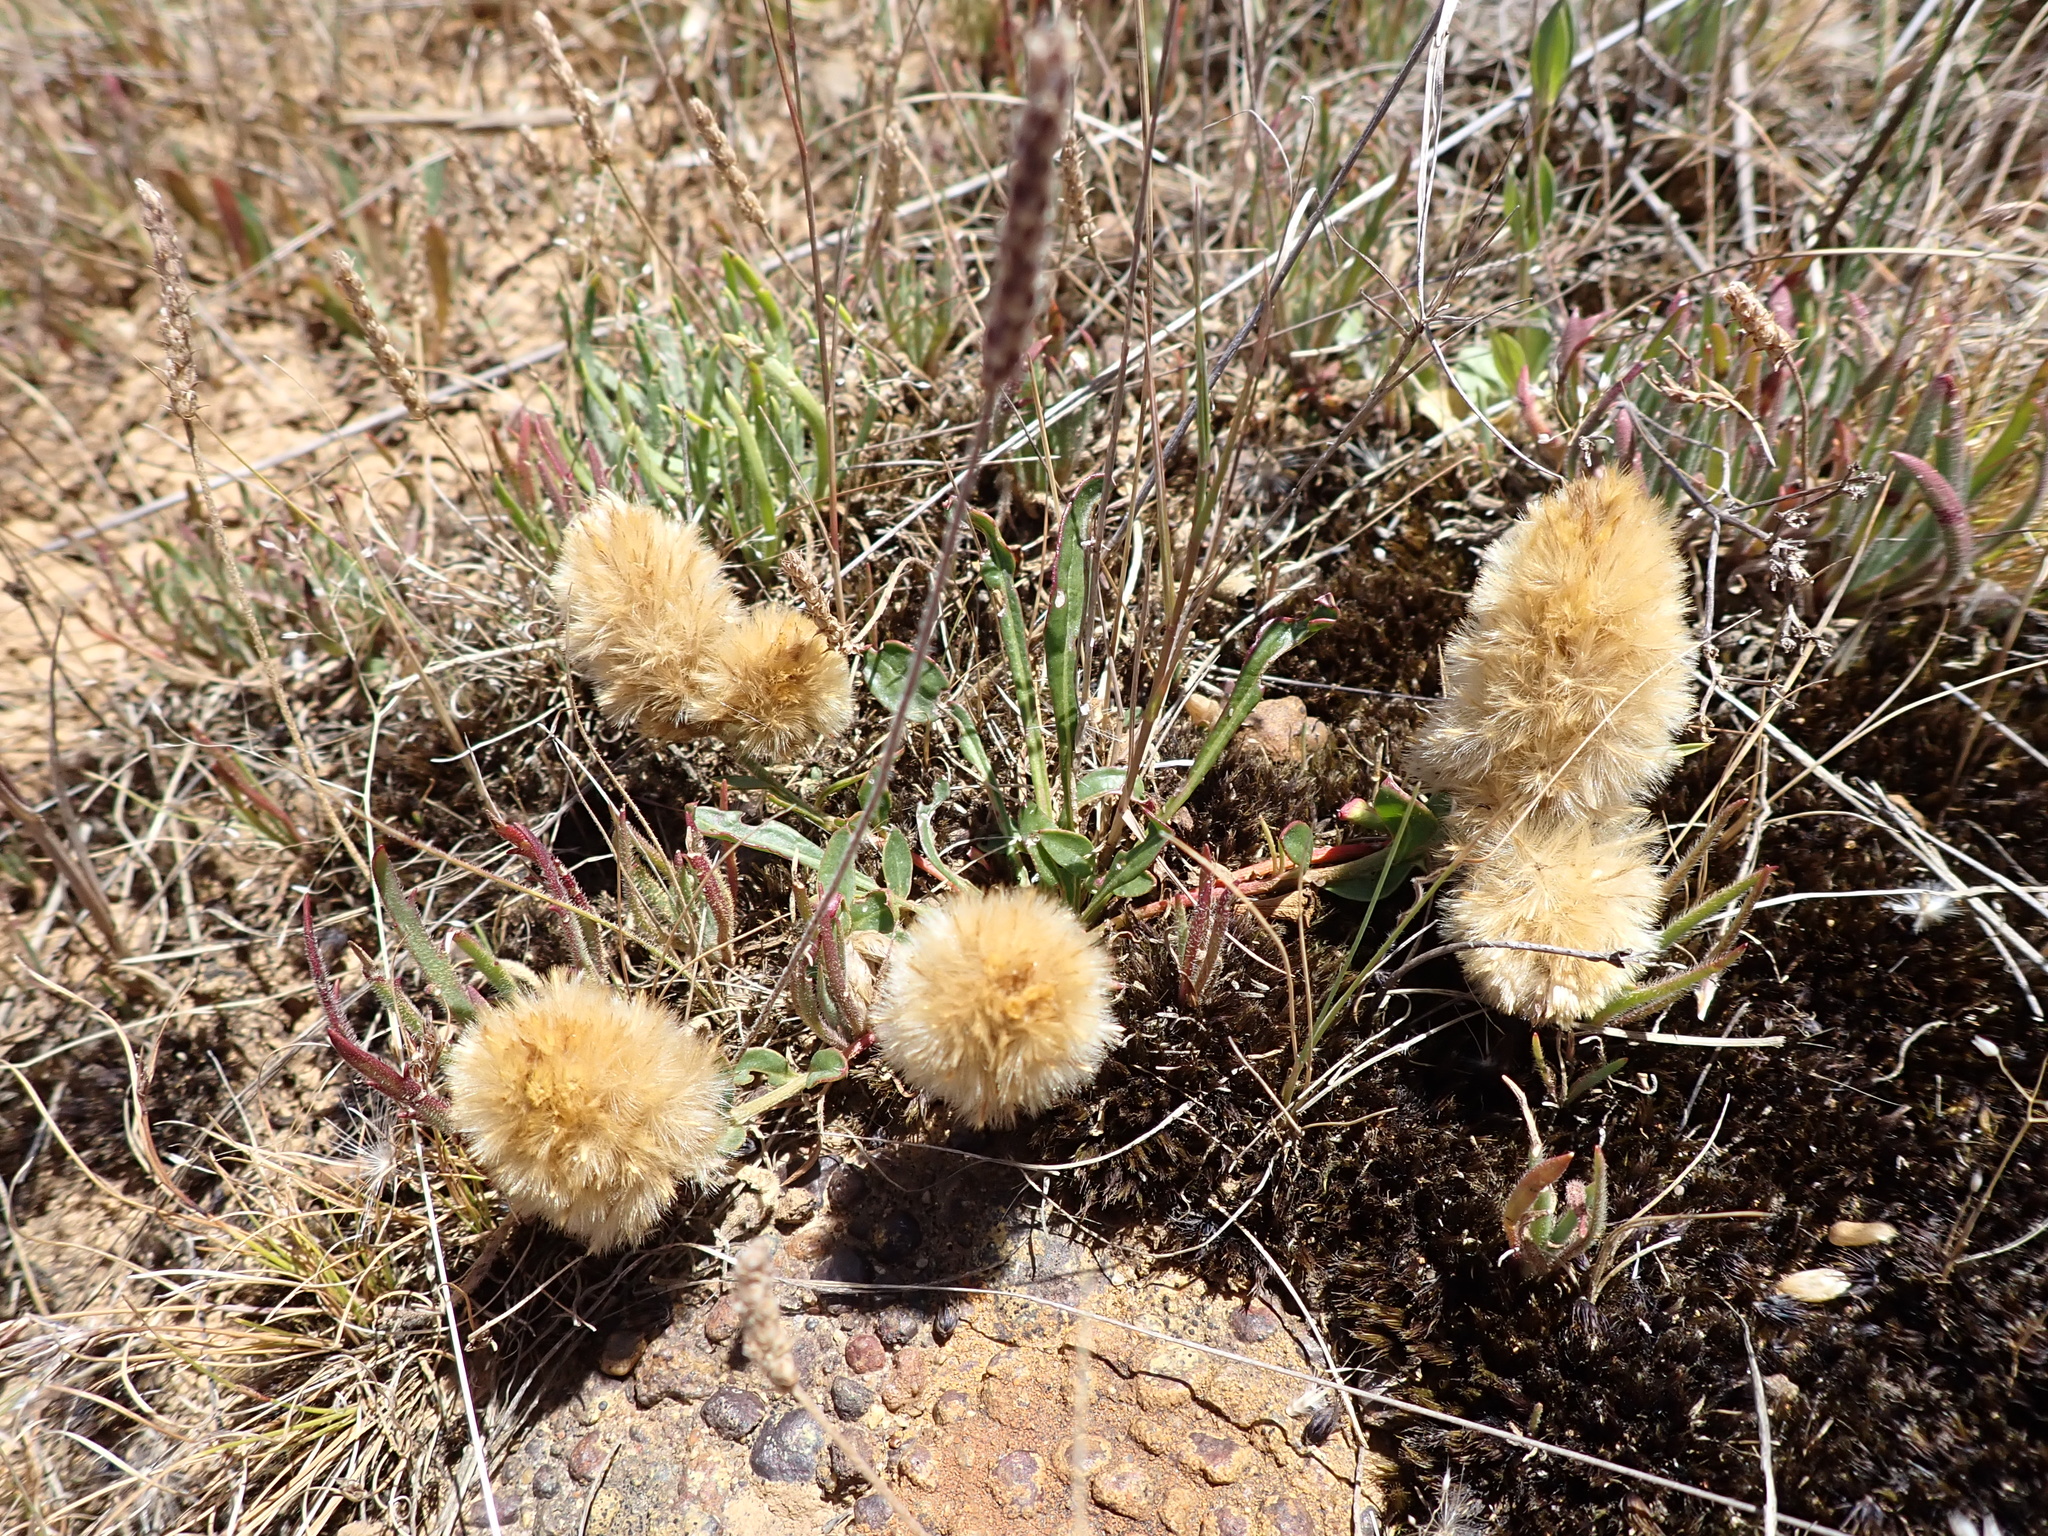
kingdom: Plantae
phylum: Tracheophyta
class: Magnoliopsida
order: Caryophyllales
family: Amaranthaceae
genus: Ptilotus
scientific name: Ptilotus spathulatus
